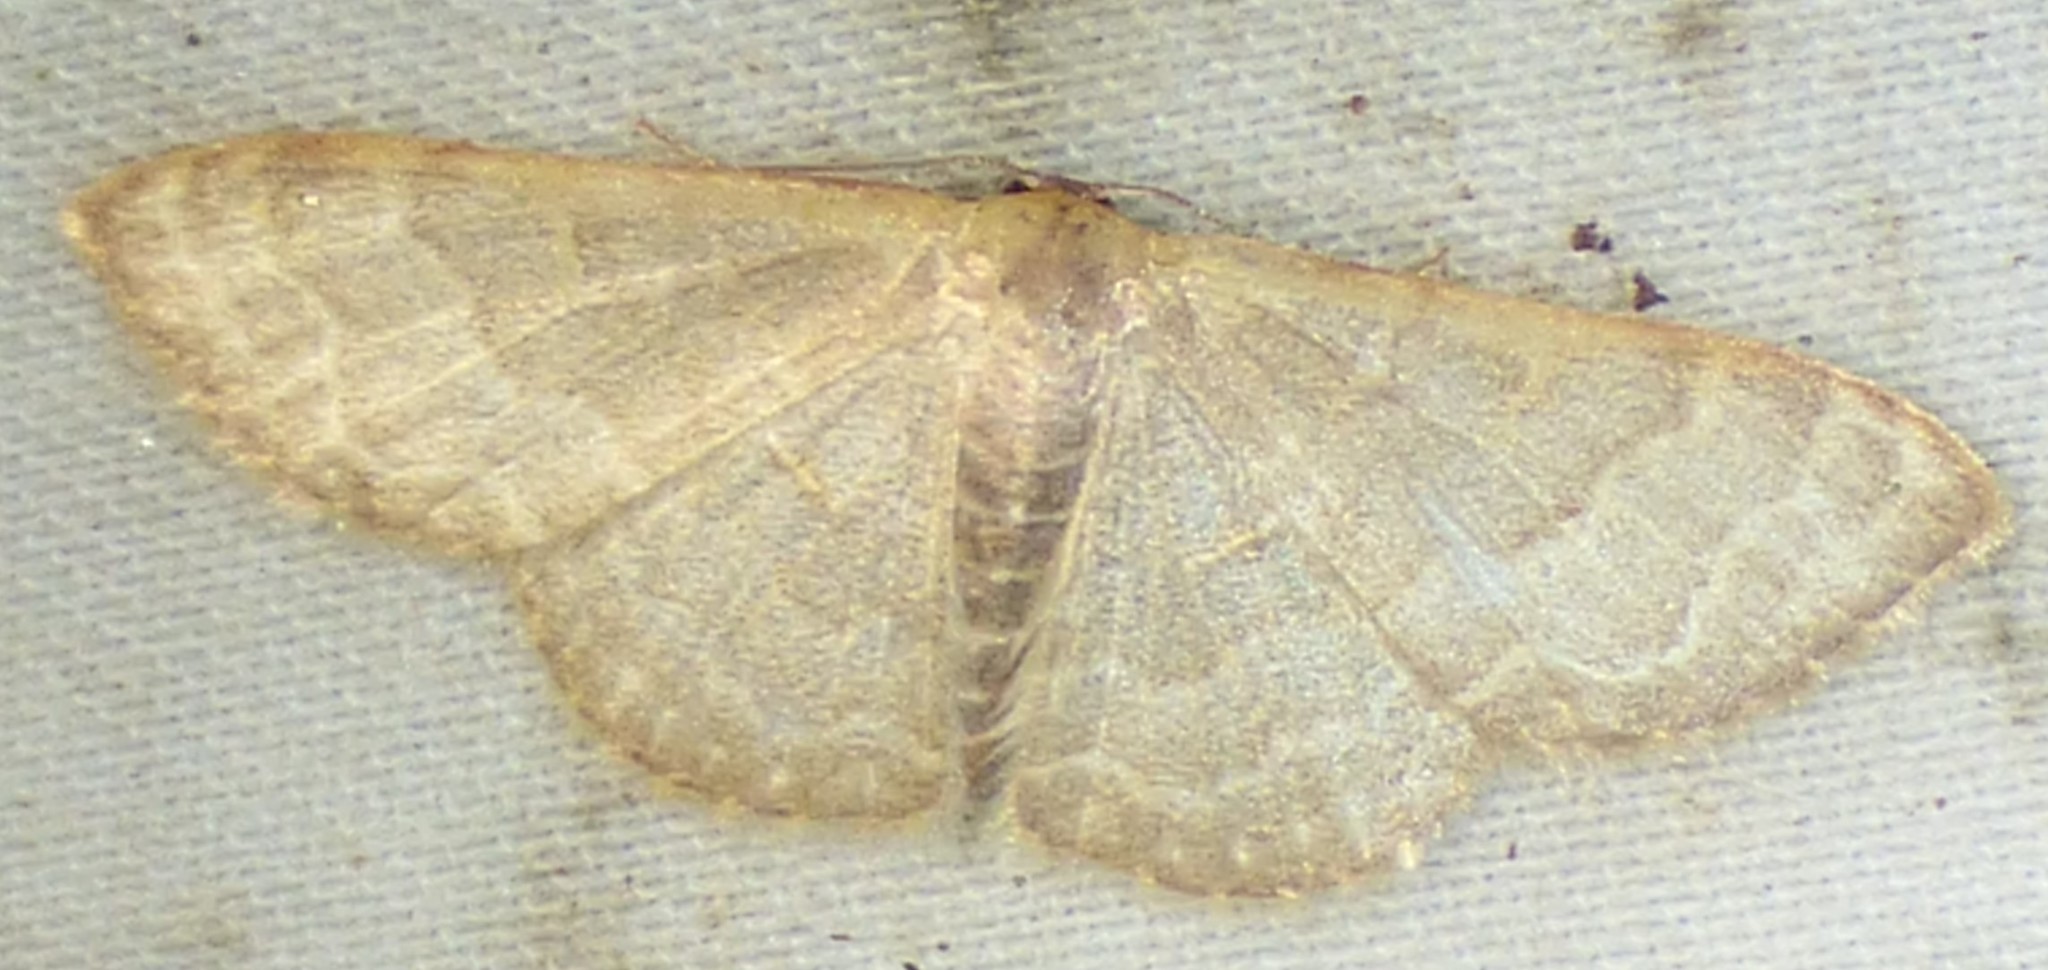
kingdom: Animalia
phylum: Arthropoda
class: Insecta
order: Lepidoptera
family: Geometridae
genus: Leptostales
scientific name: Leptostales pannaria
